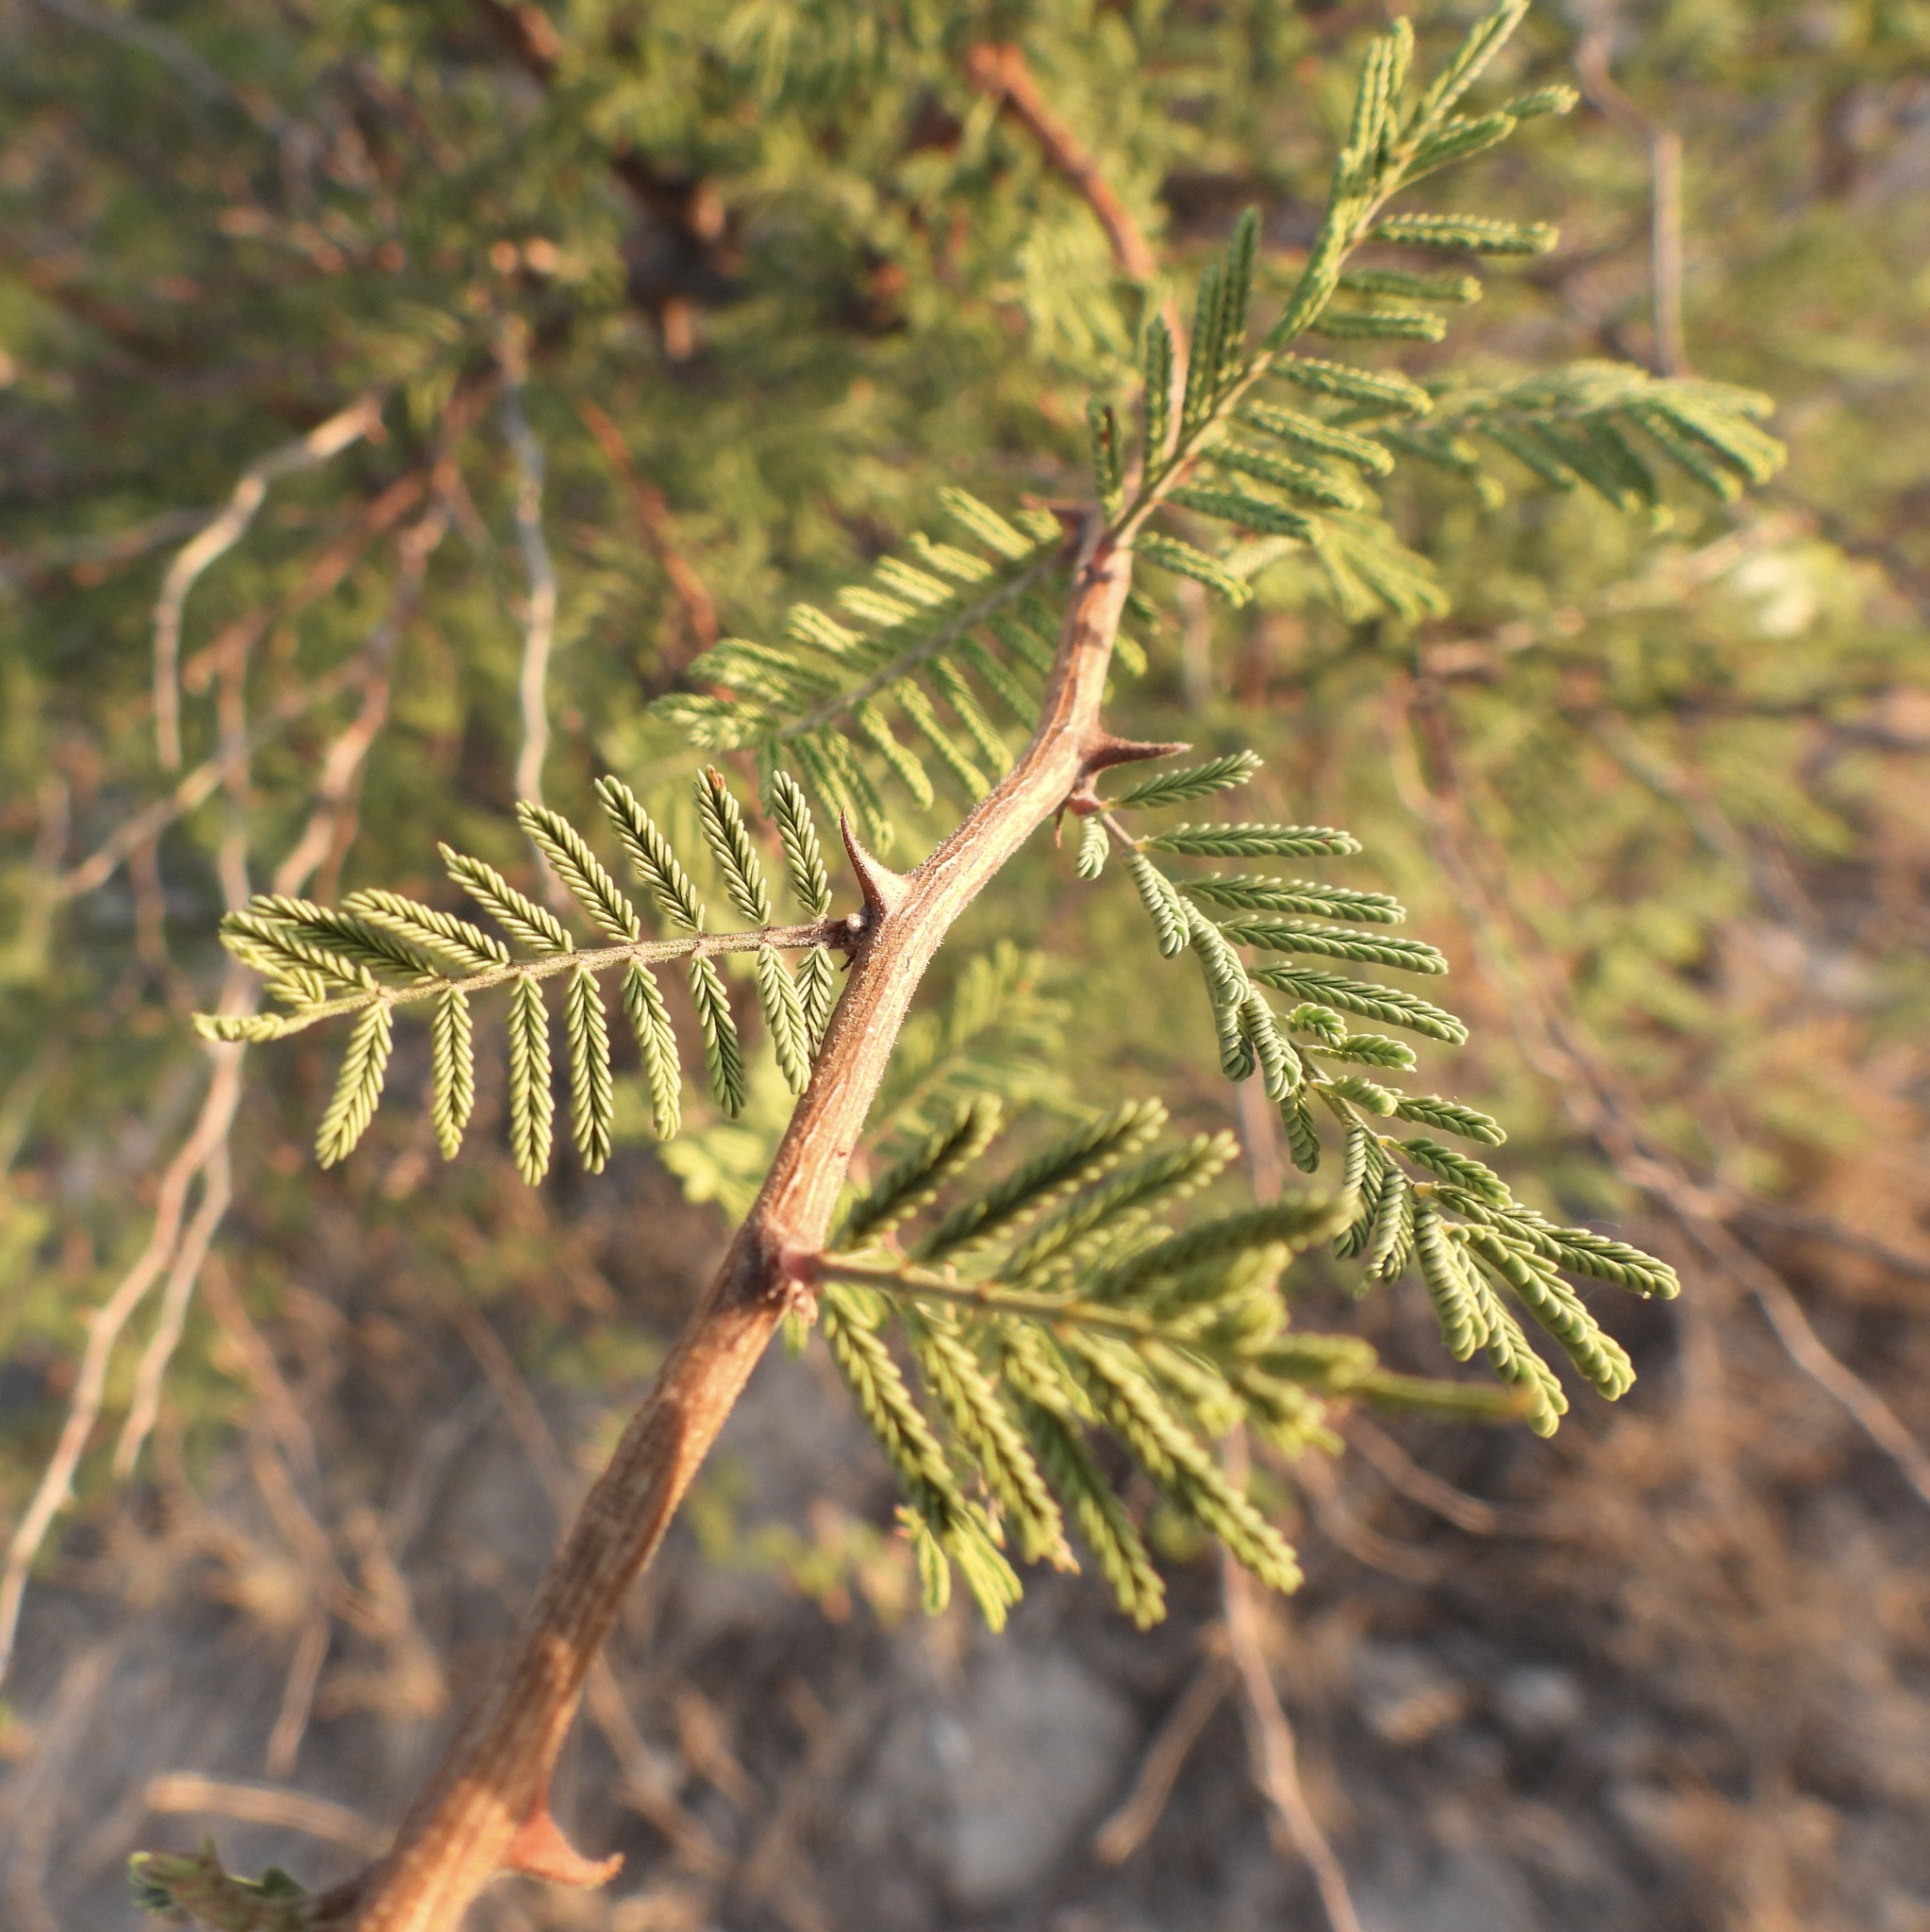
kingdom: Plantae
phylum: Tracheophyta
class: Magnoliopsida
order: Fabales
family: Fabaceae
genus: Mimosa
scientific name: Mimosa aculeaticarpa
